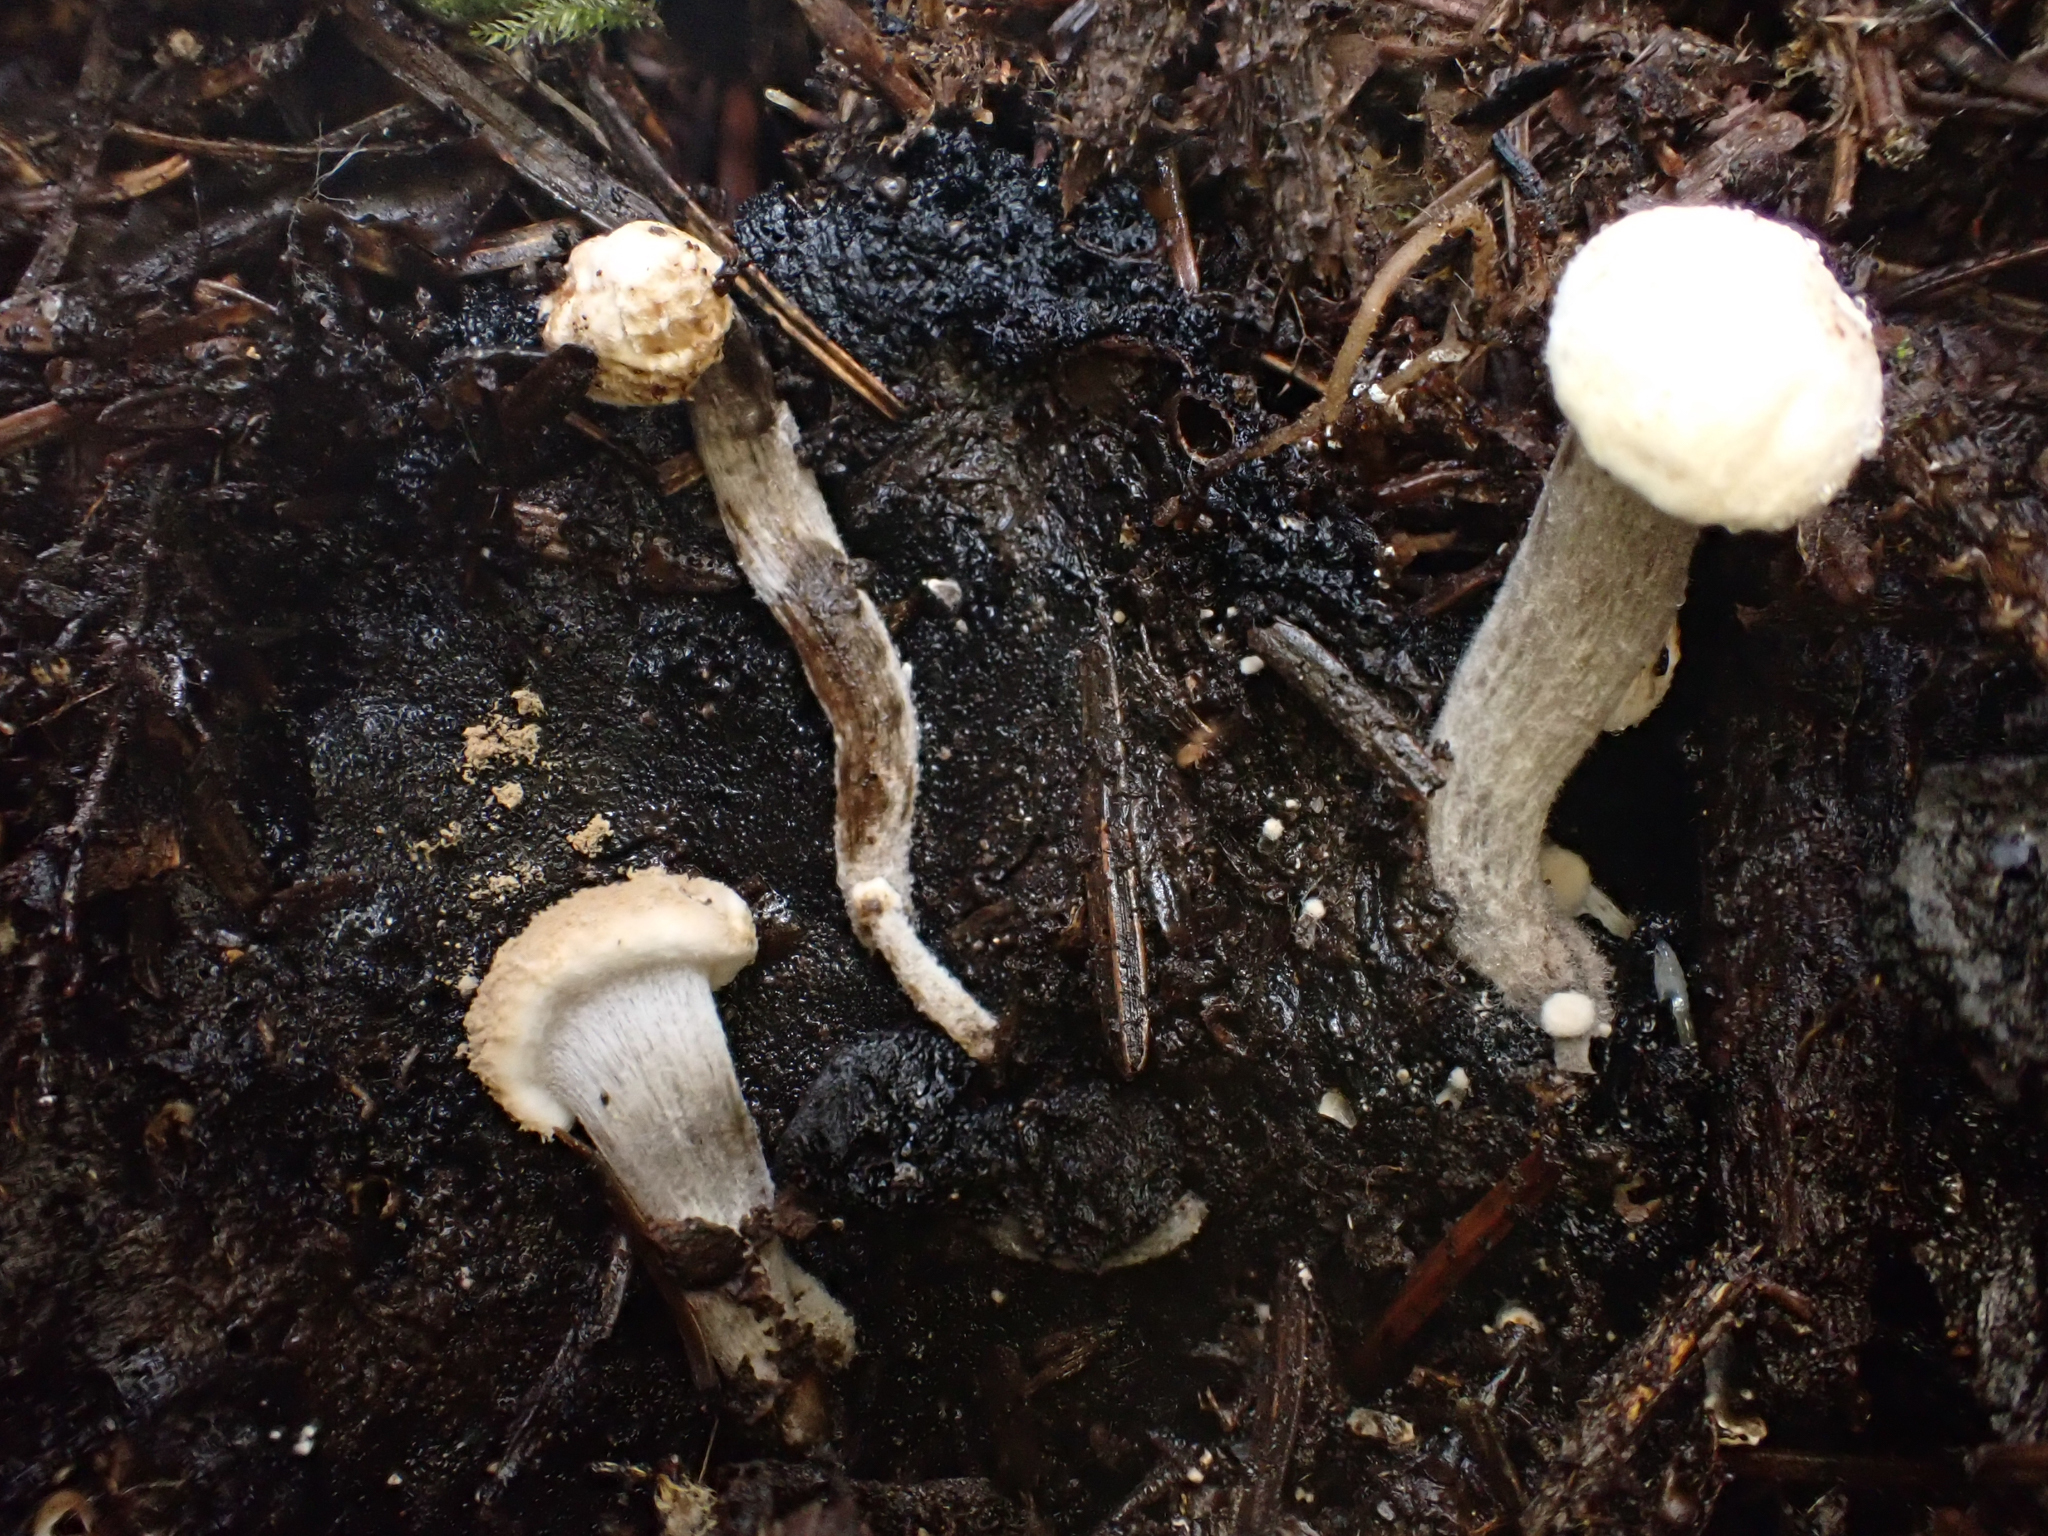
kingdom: Fungi
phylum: Basidiomycota
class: Agaricomycetes
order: Agaricales
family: Lyophyllaceae
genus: Asterophora
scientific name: Asterophora lycoperdoides
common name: Pick-a-back toadstool
